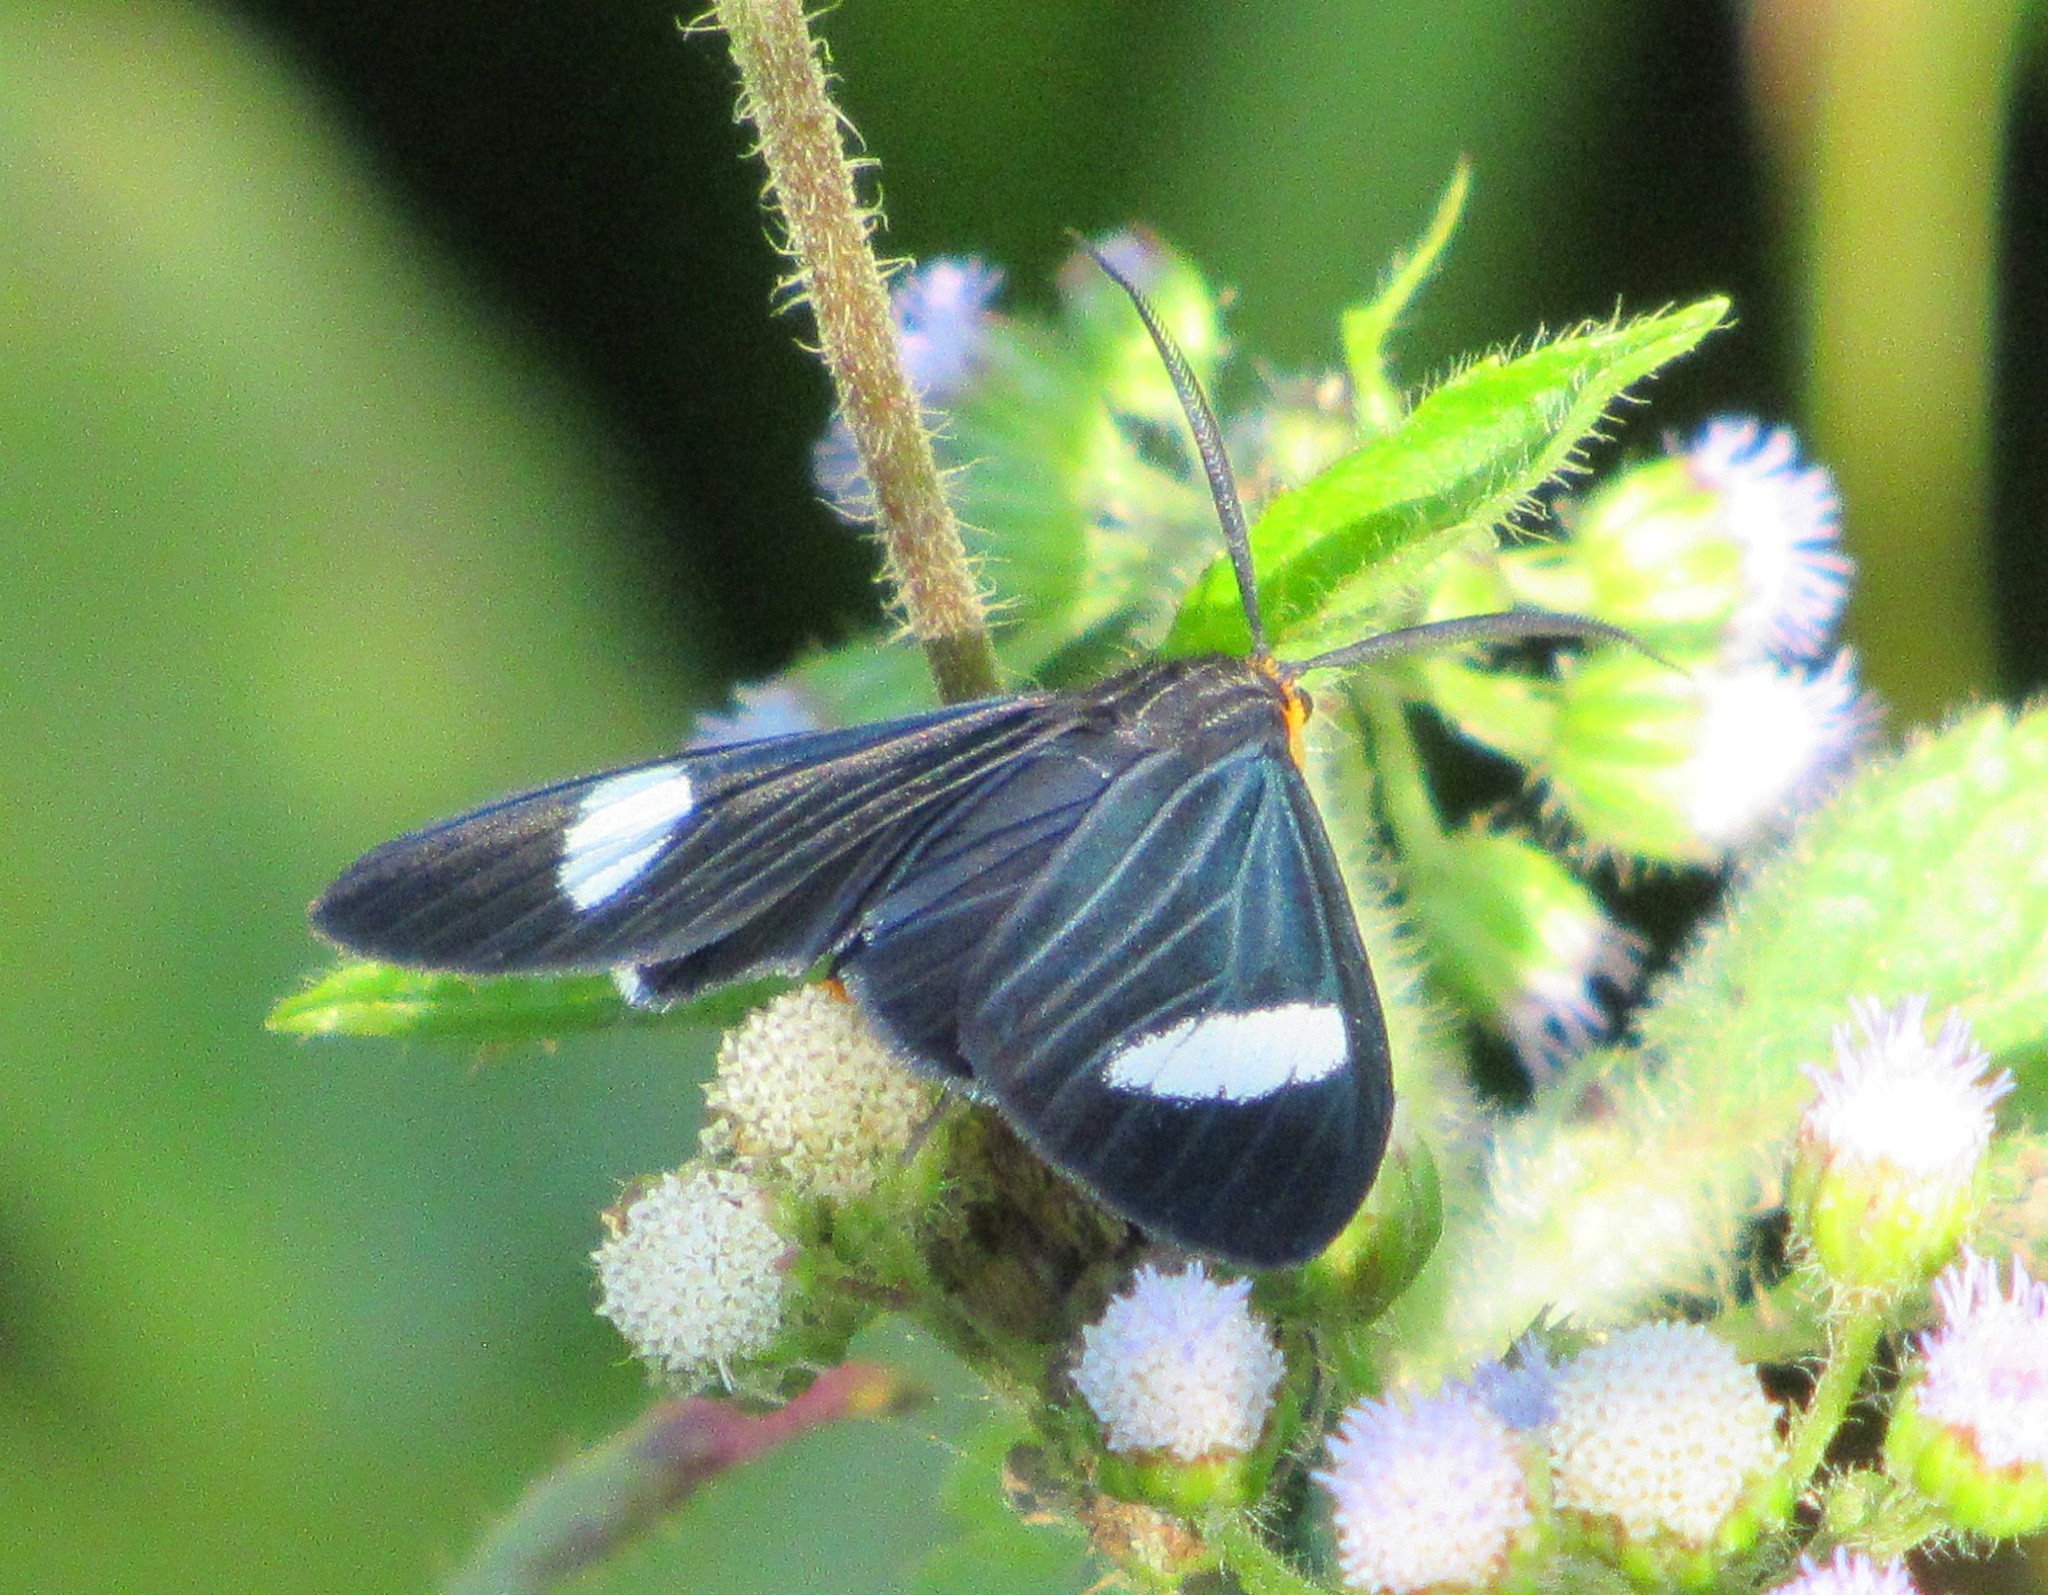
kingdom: Animalia
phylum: Arthropoda
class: Insecta
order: Lepidoptera
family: Erebidae
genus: Calodesma
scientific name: Calodesma collaris
